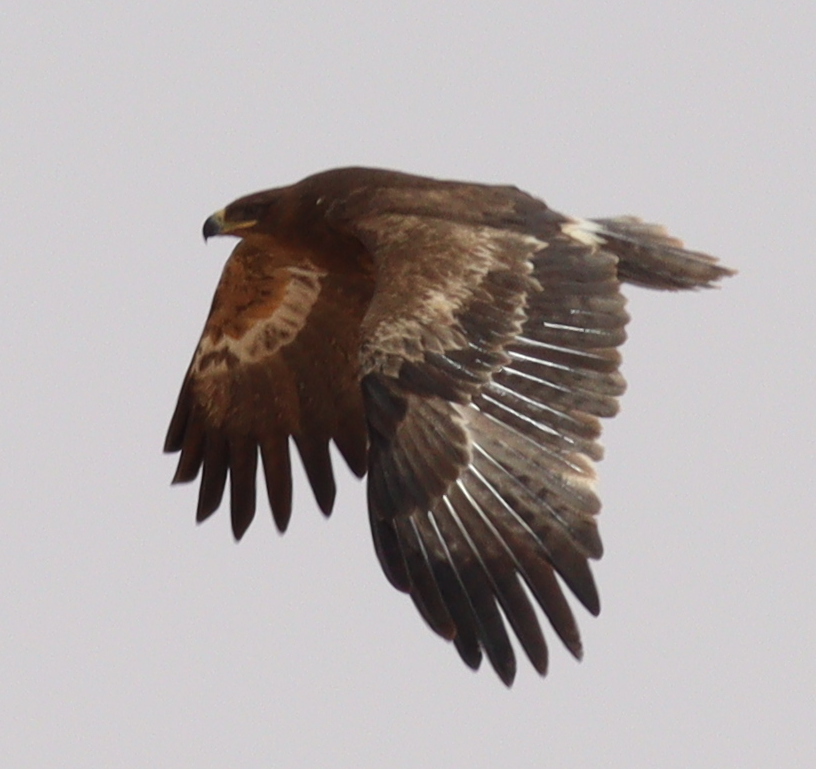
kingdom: Animalia
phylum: Chordata
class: Aves
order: Accipitriformes
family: Accipitridae
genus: Aquila
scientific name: Aquila nipalensis
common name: Steppe eagle
